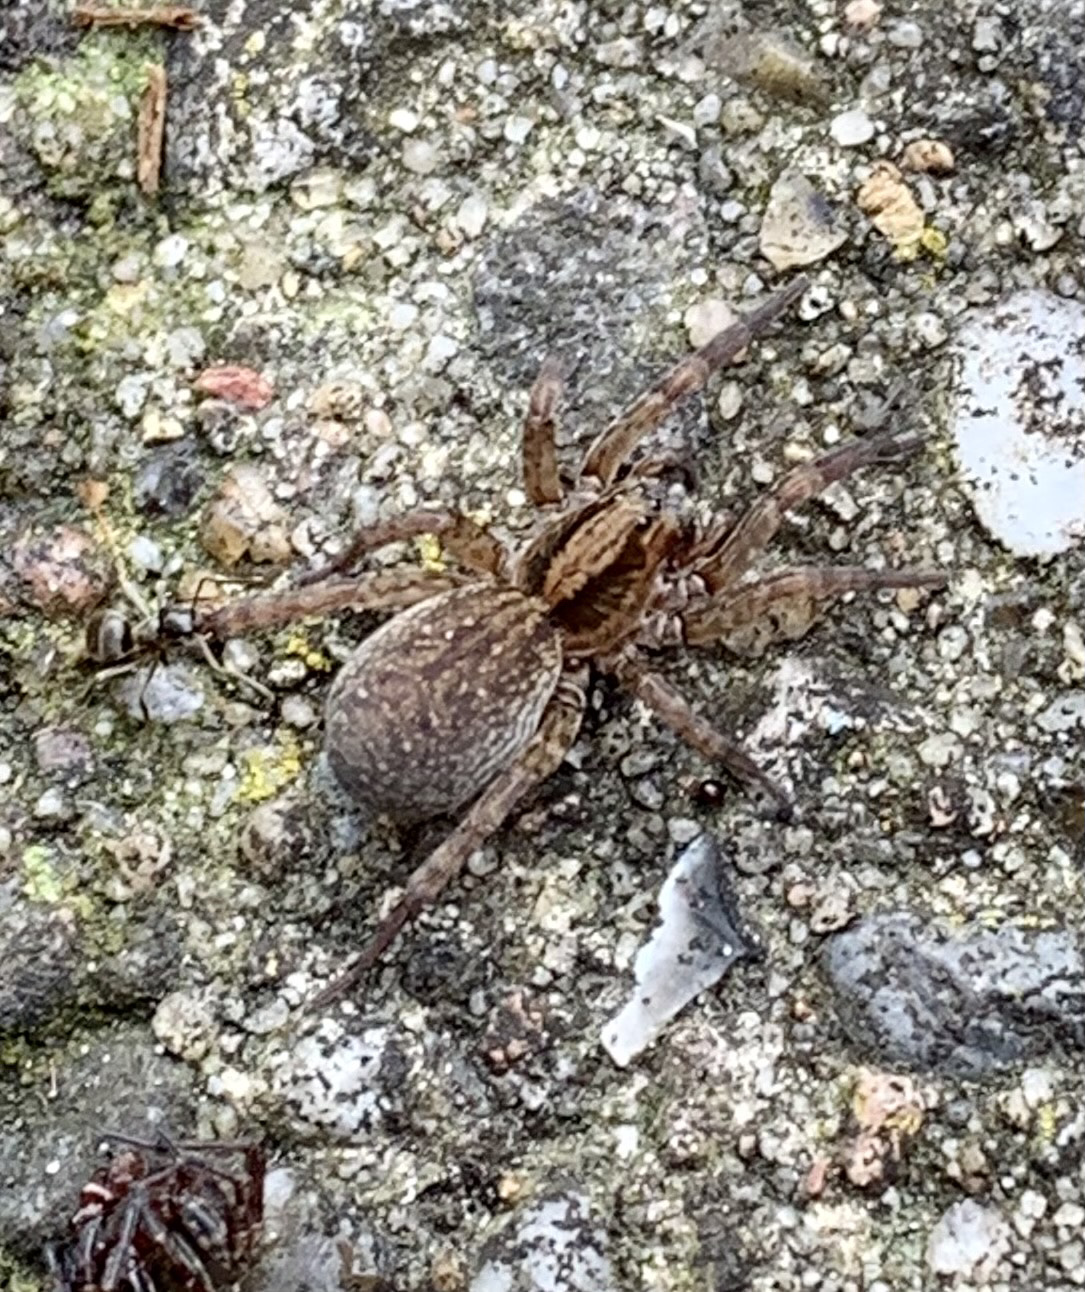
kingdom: Animalia
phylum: Arthropoda
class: Arachnida
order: Araneae
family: Lycosidae
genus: Trochosa
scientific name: Trochosa terricola
